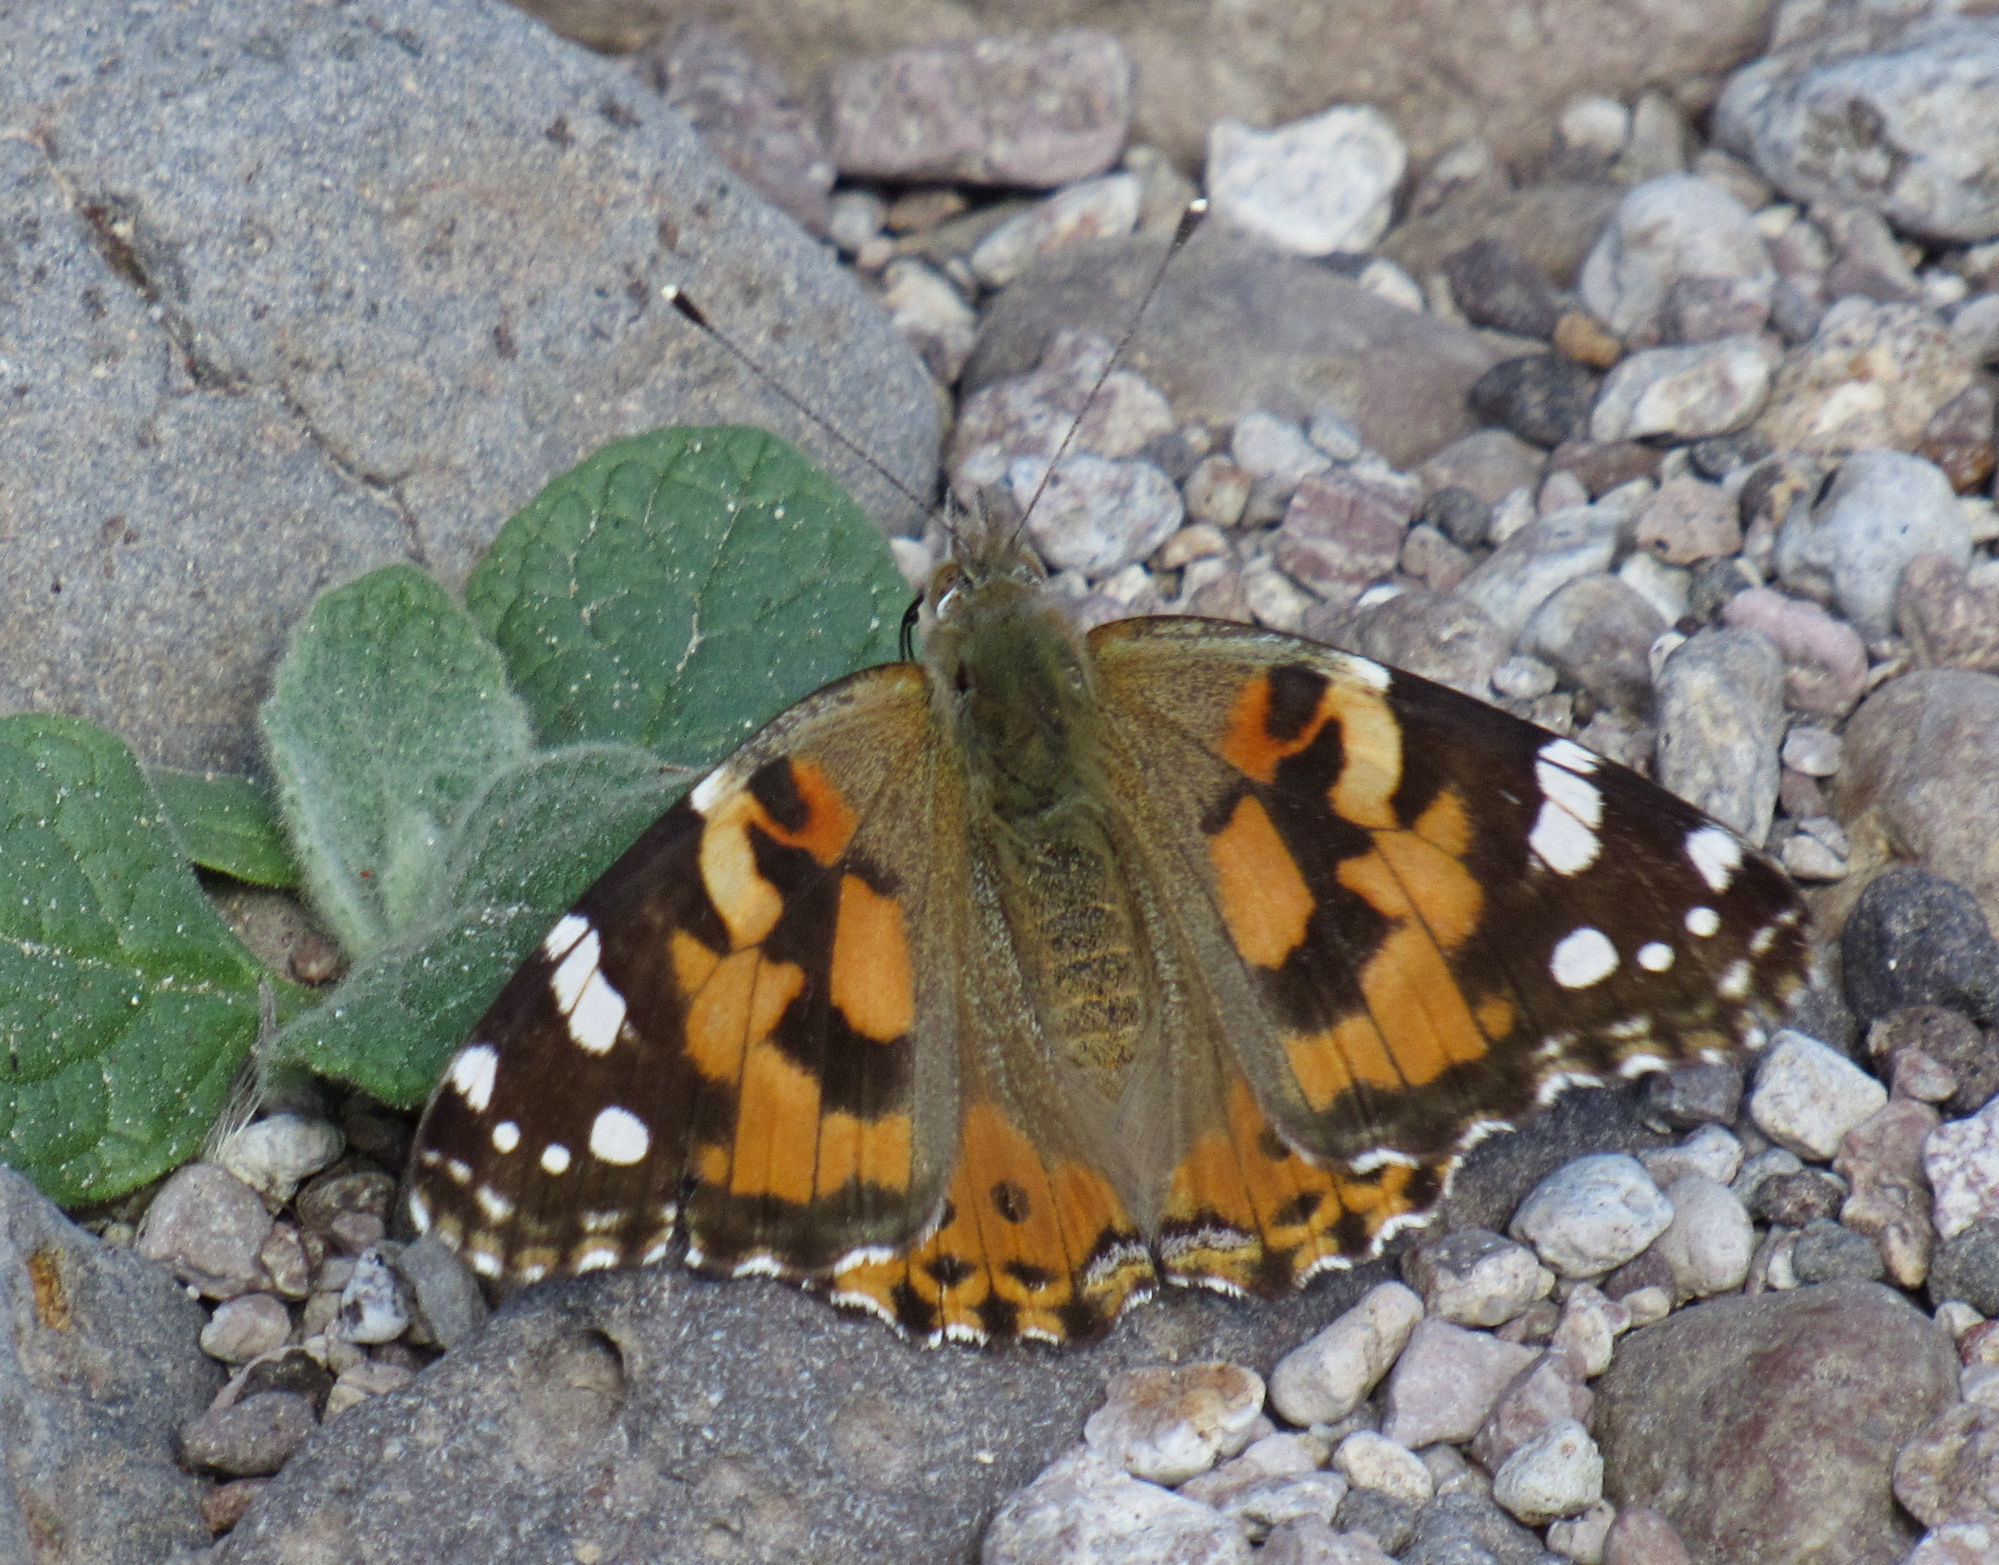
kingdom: Animalia
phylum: Arthropoda
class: Insecta
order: Lepidoptera
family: Nymphalidae
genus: Vanessa
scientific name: Vanessa cardui
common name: Painted lady
